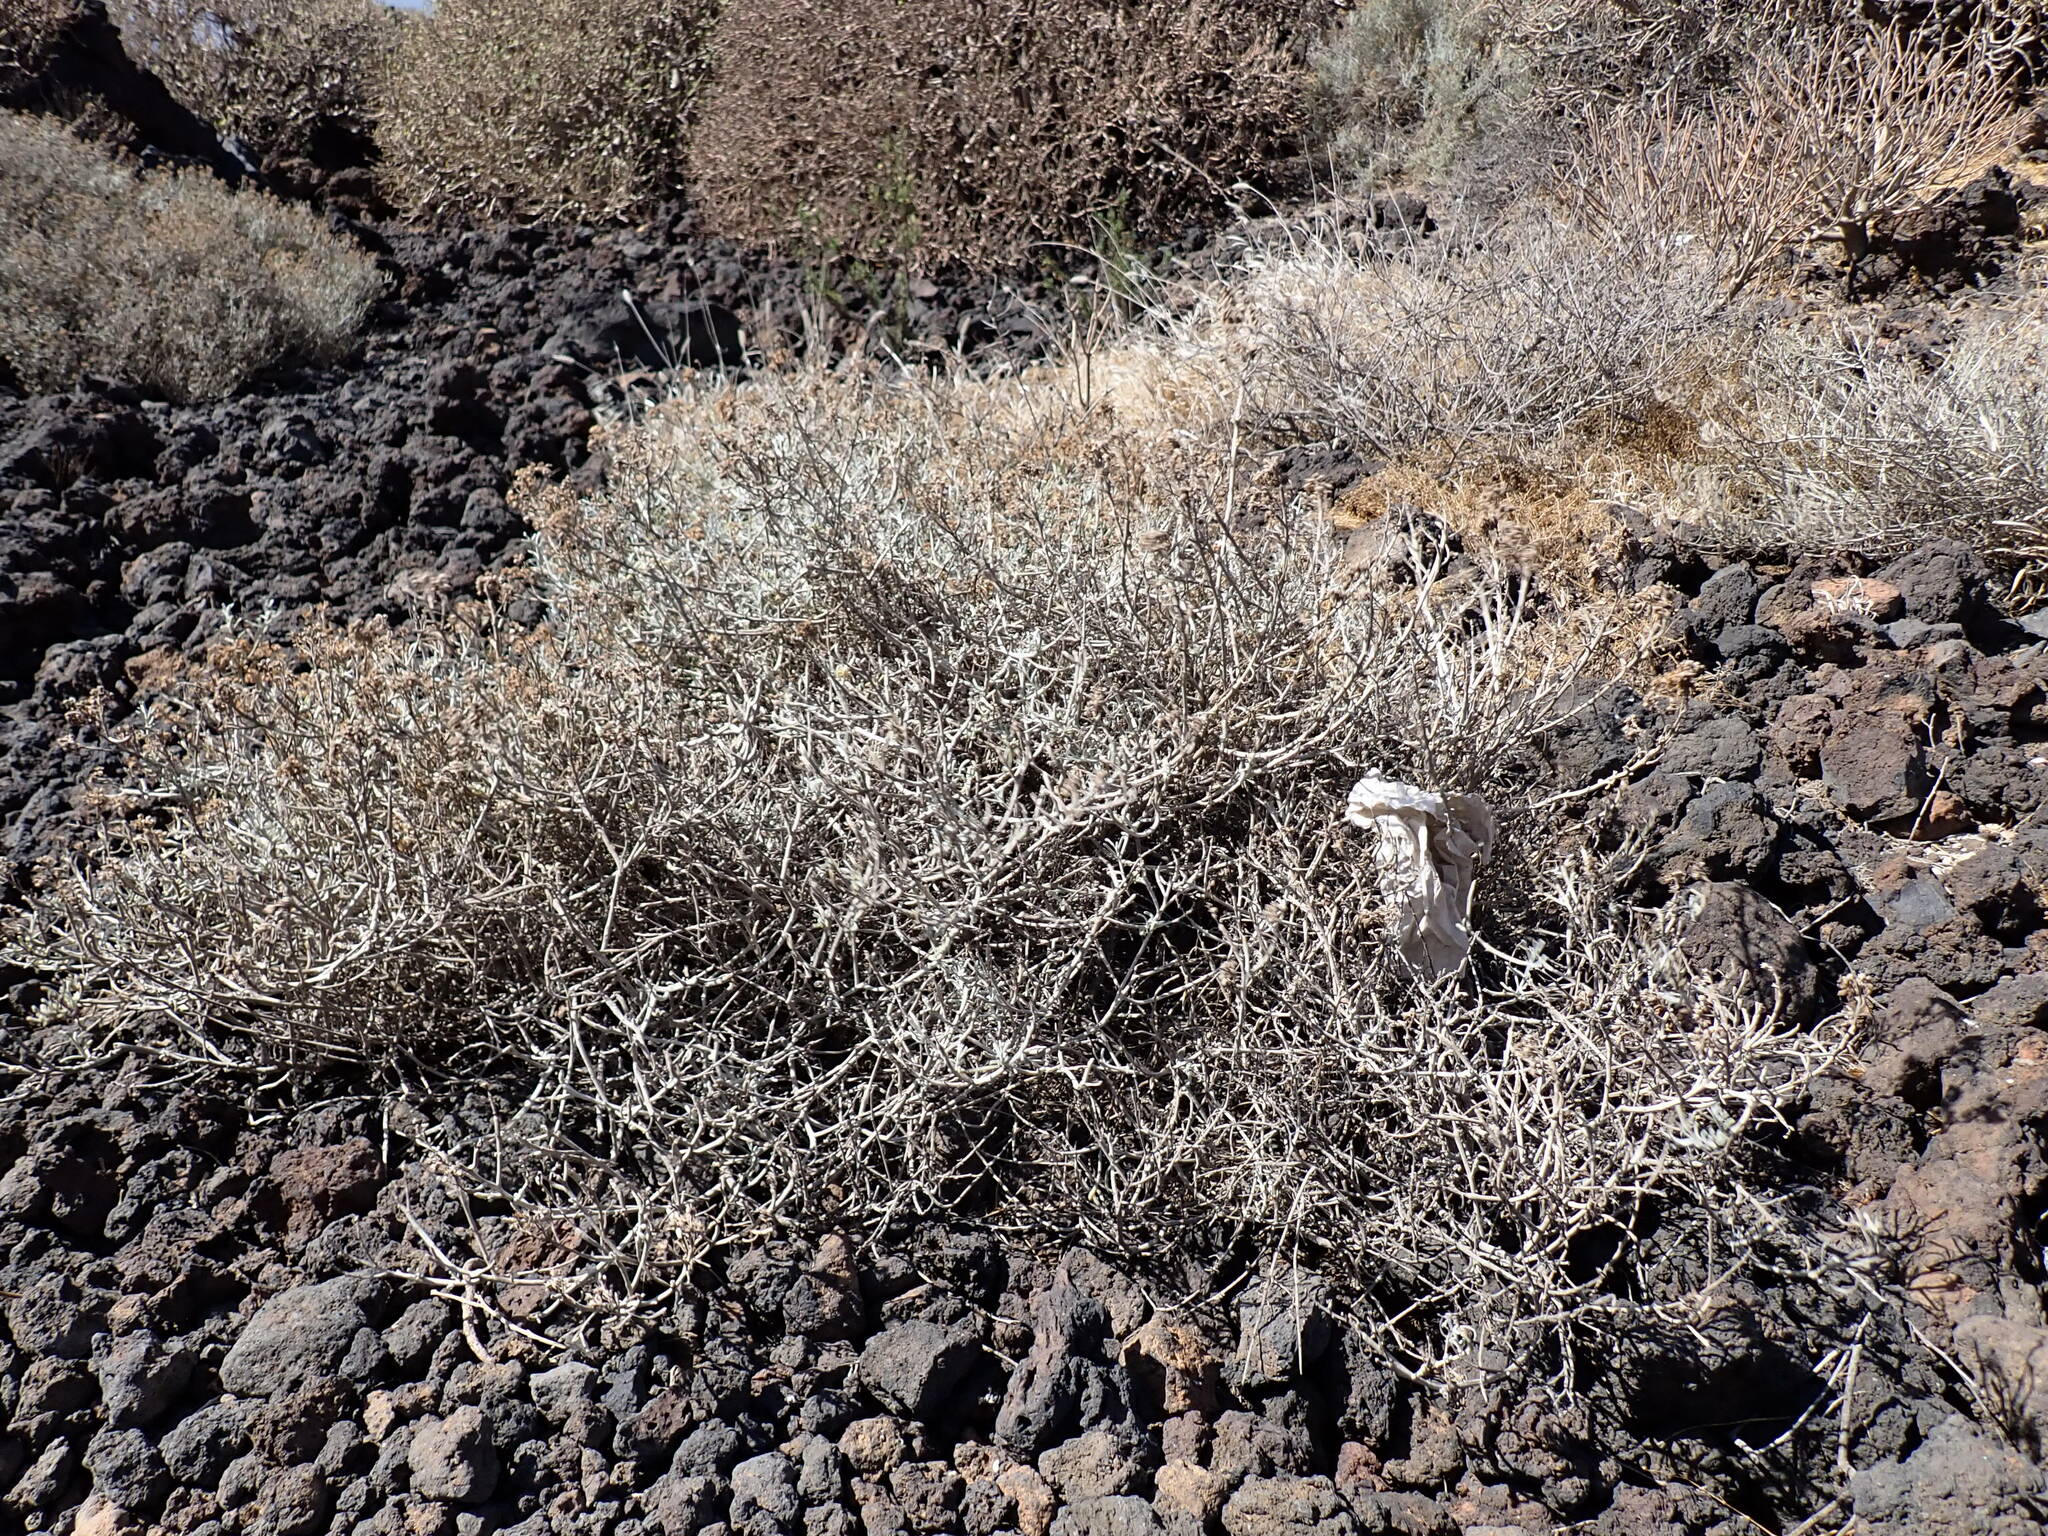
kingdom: Plantae
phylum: Tracheophyta
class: Magnoliopsida
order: Asterales
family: Asteraceae
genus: Schizogyne
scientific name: Schizogyne sericea
